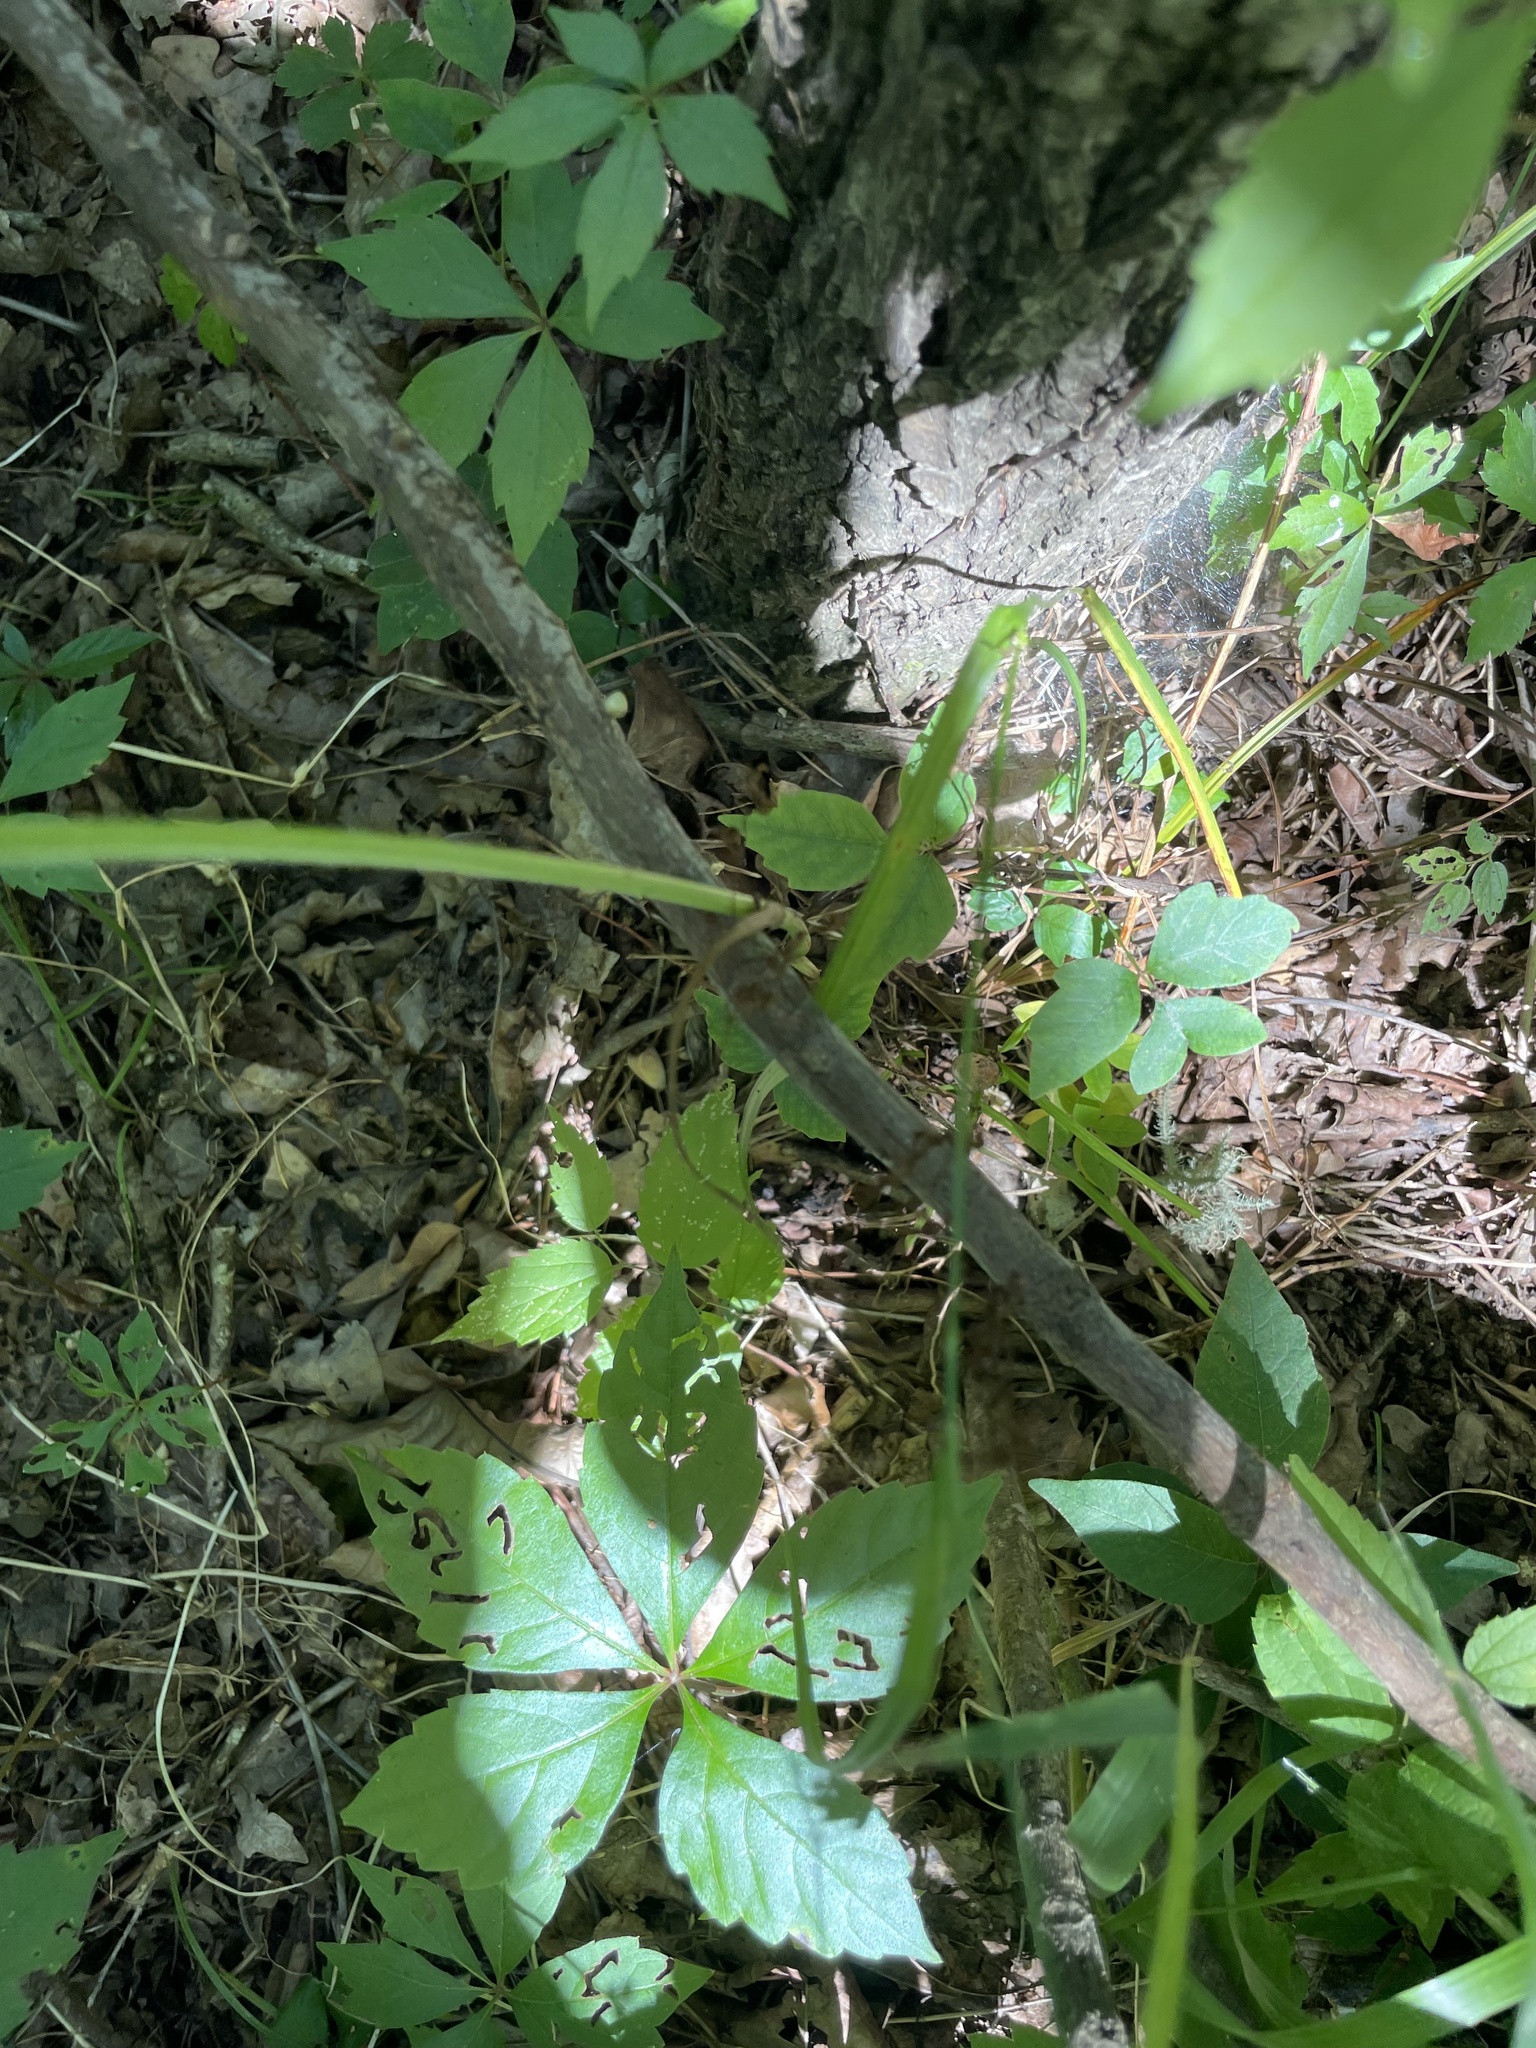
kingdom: Plantae
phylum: Tracheophyta
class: Magnoliopsida
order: Apiales
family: Apiaceae
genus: Perideridia
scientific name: Perideridia americana
